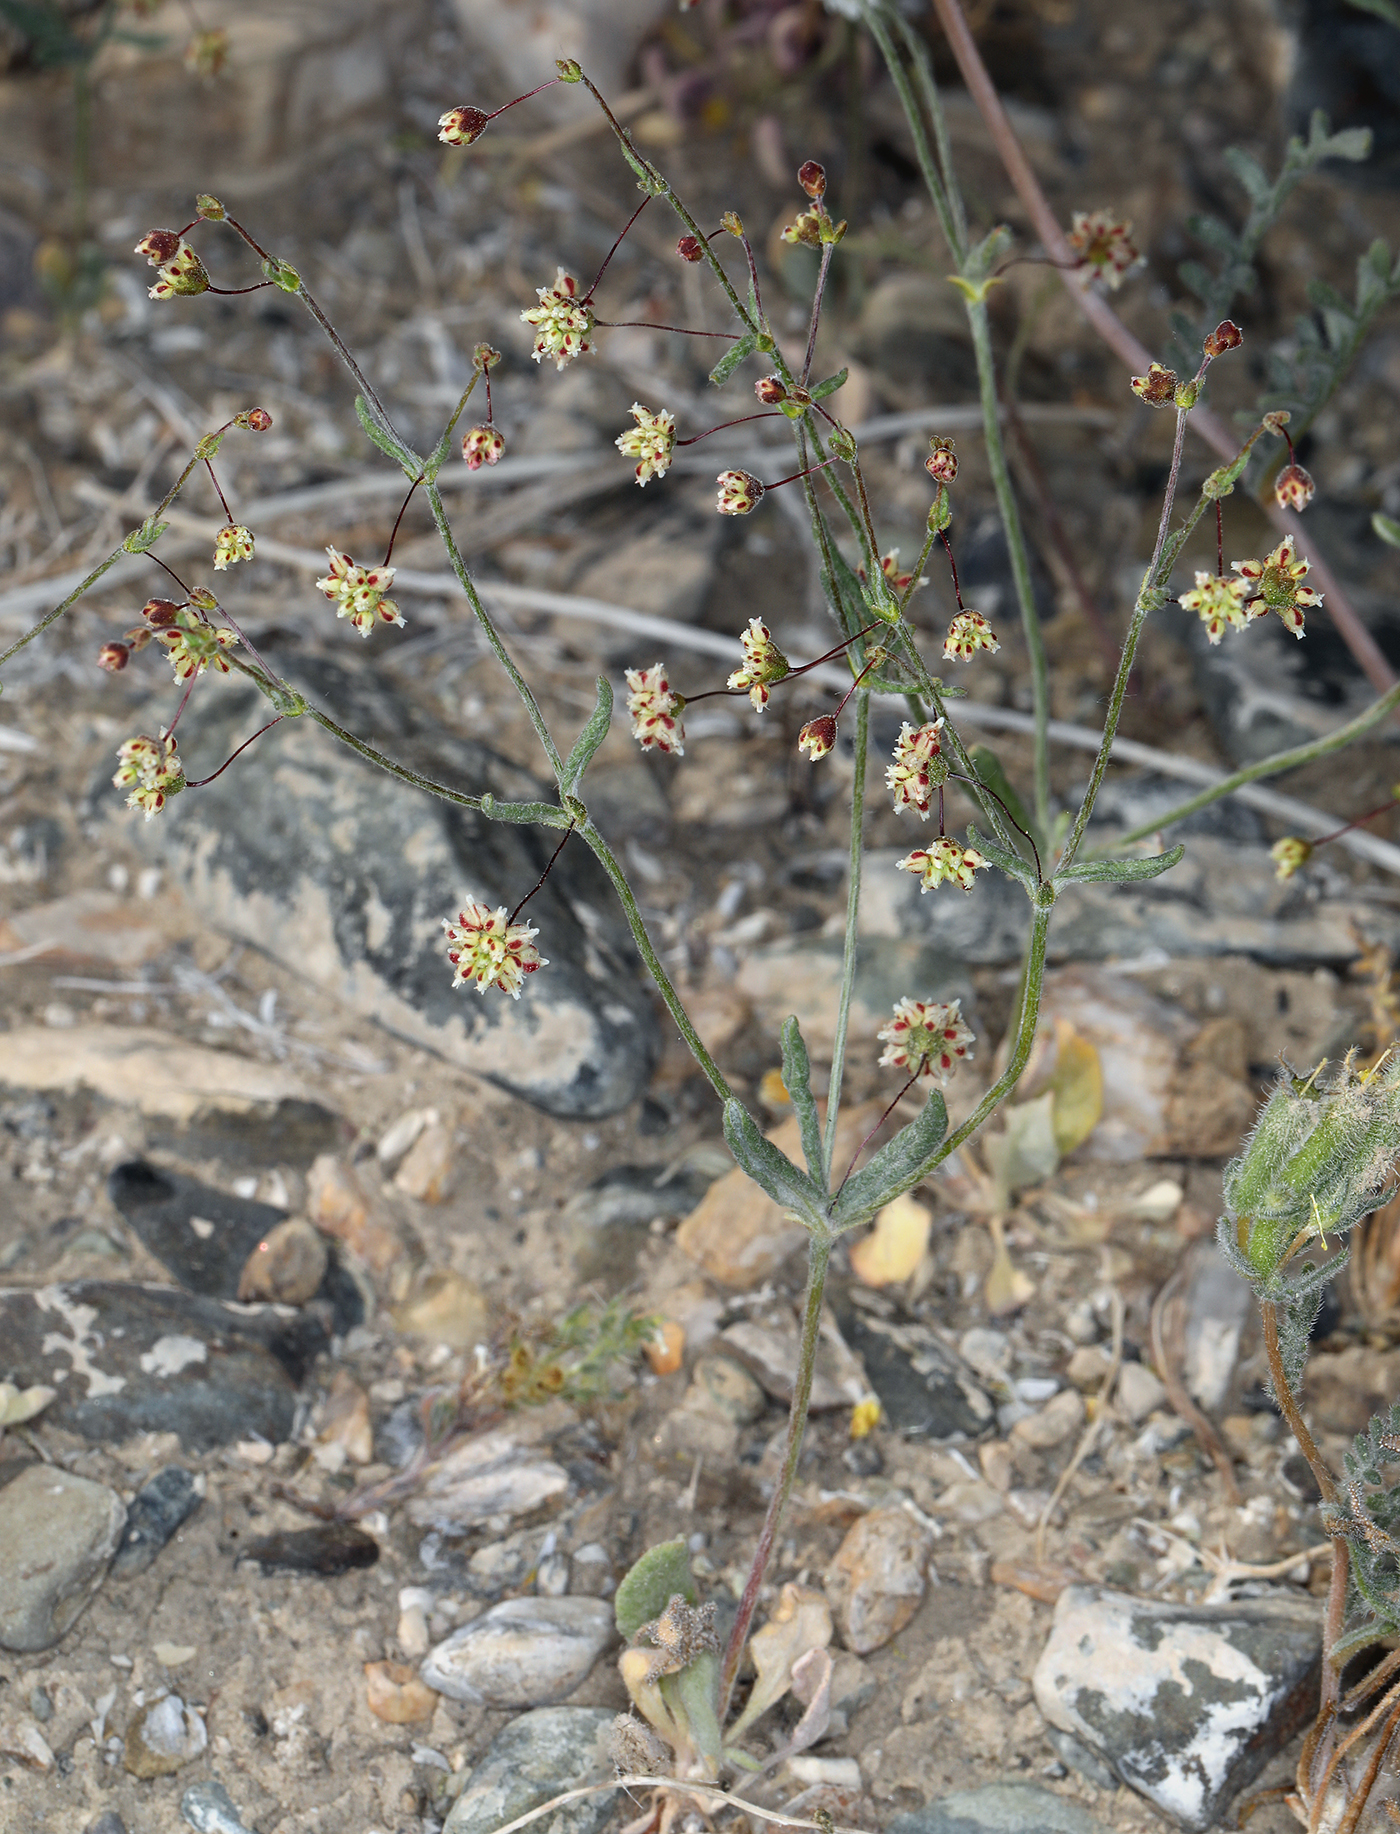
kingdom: Plantae
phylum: Tracheophyta
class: Magnoliopsida
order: Caryophyllales
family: Polygonaceae
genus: Eriogonum
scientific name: Eriogonum maculatum
